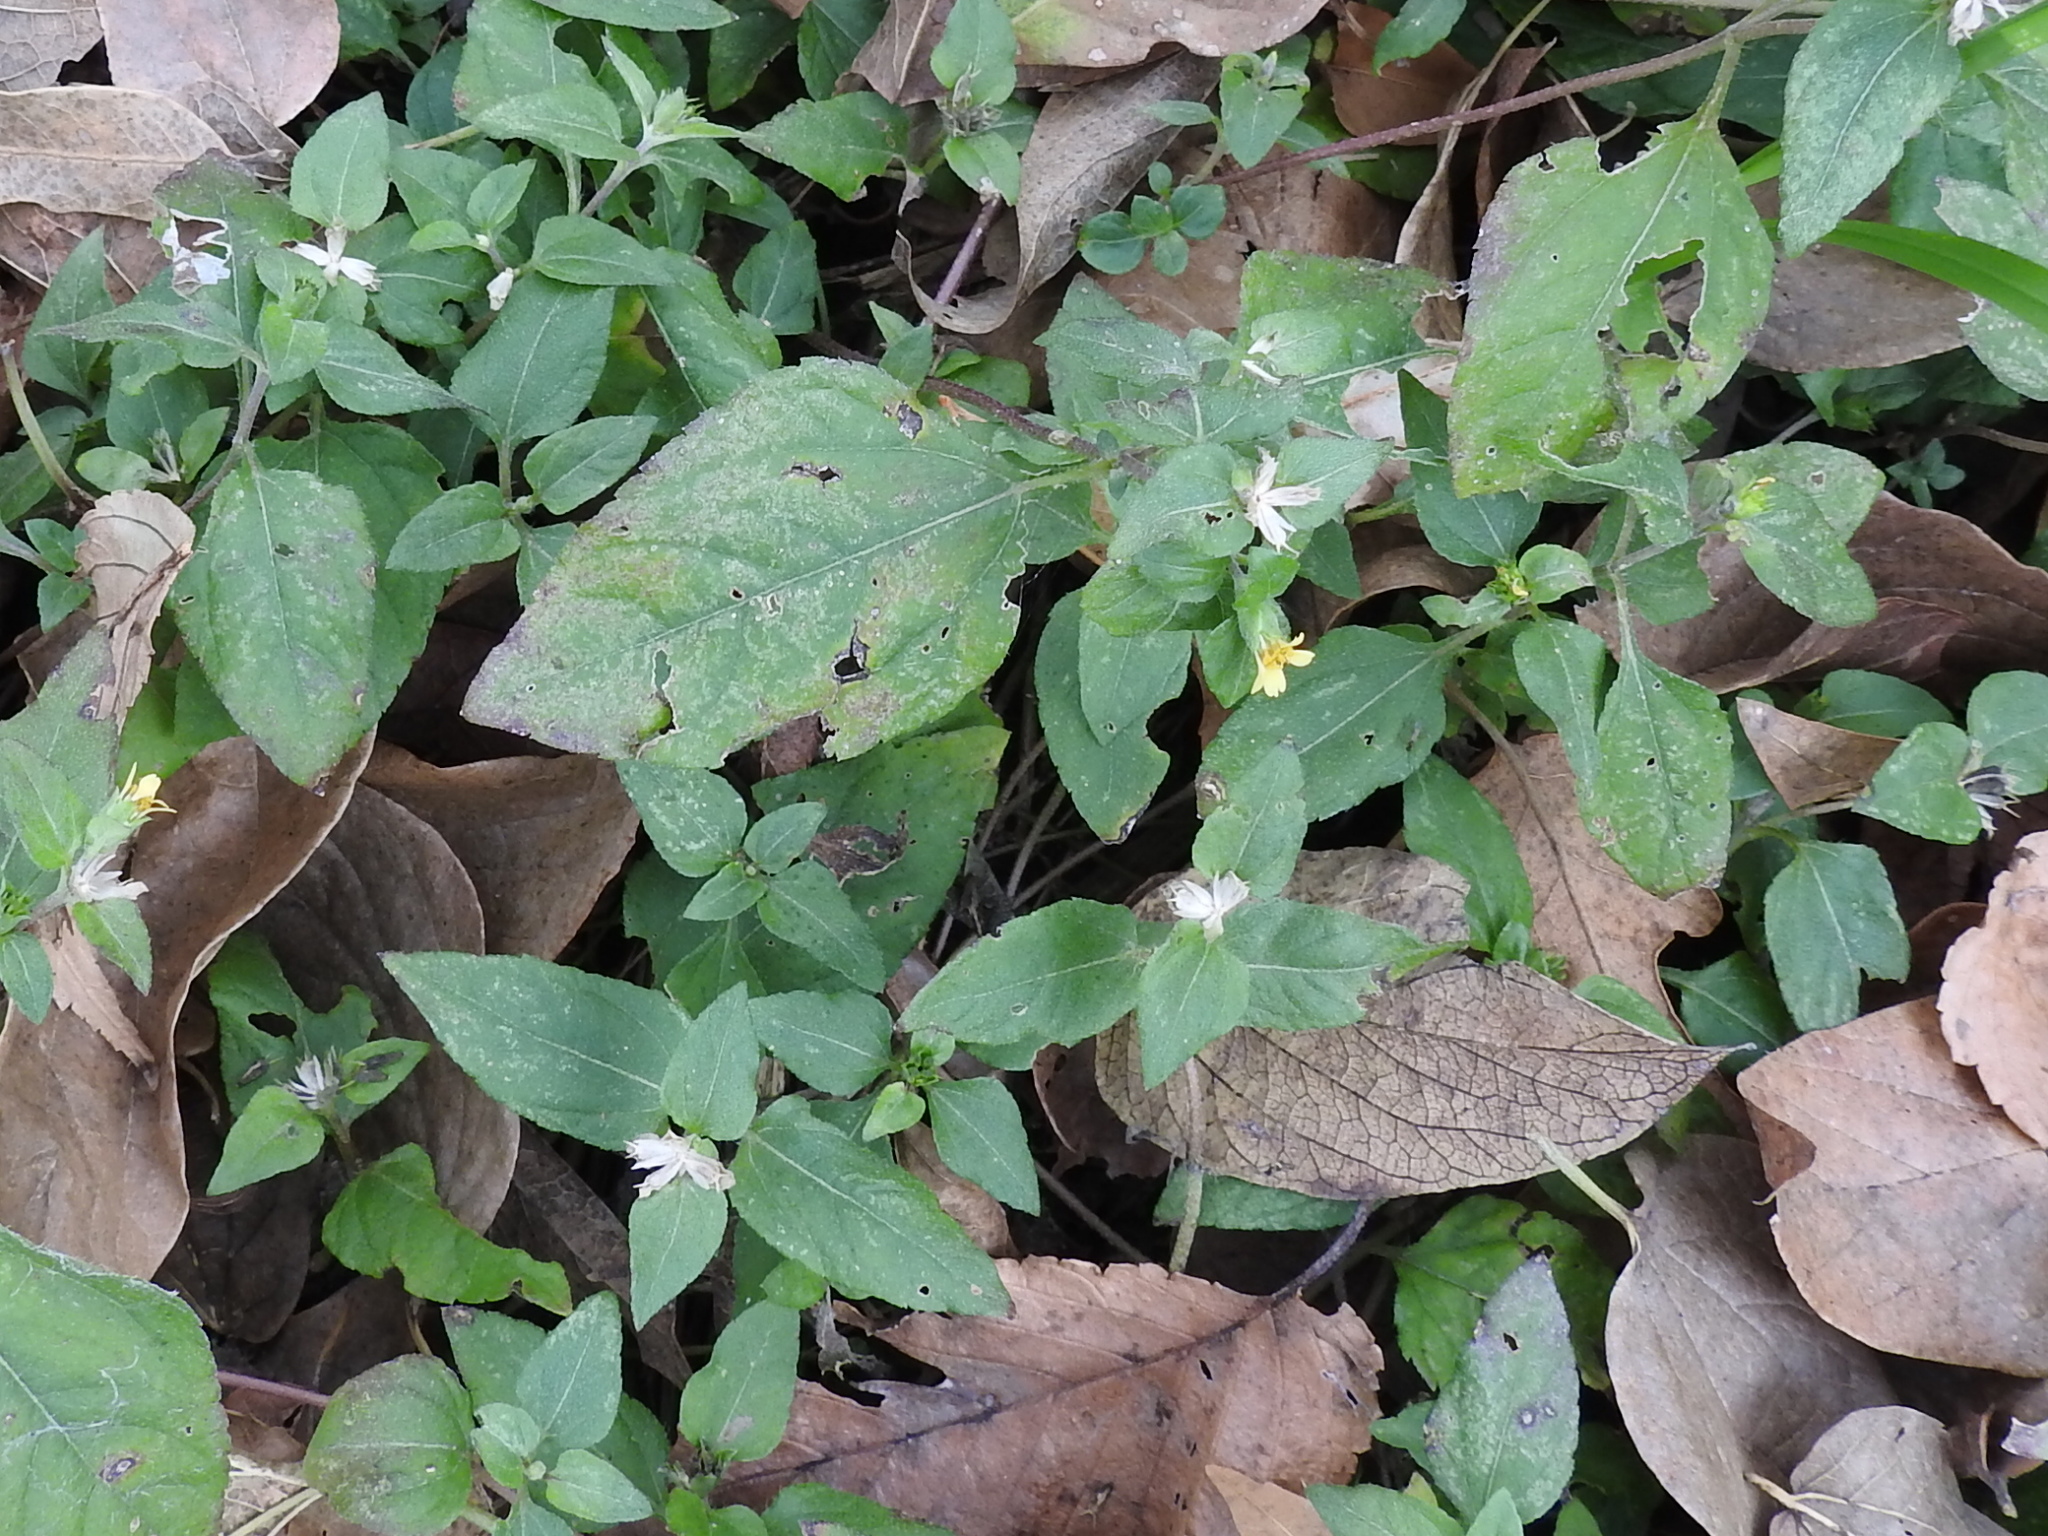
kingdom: Plantae
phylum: Tracheophyta
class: Magnoliopsida
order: Asterales
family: Asteraceae
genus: Calyptocarpus
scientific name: Calyptocarpus vialis
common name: Straggler daisy
